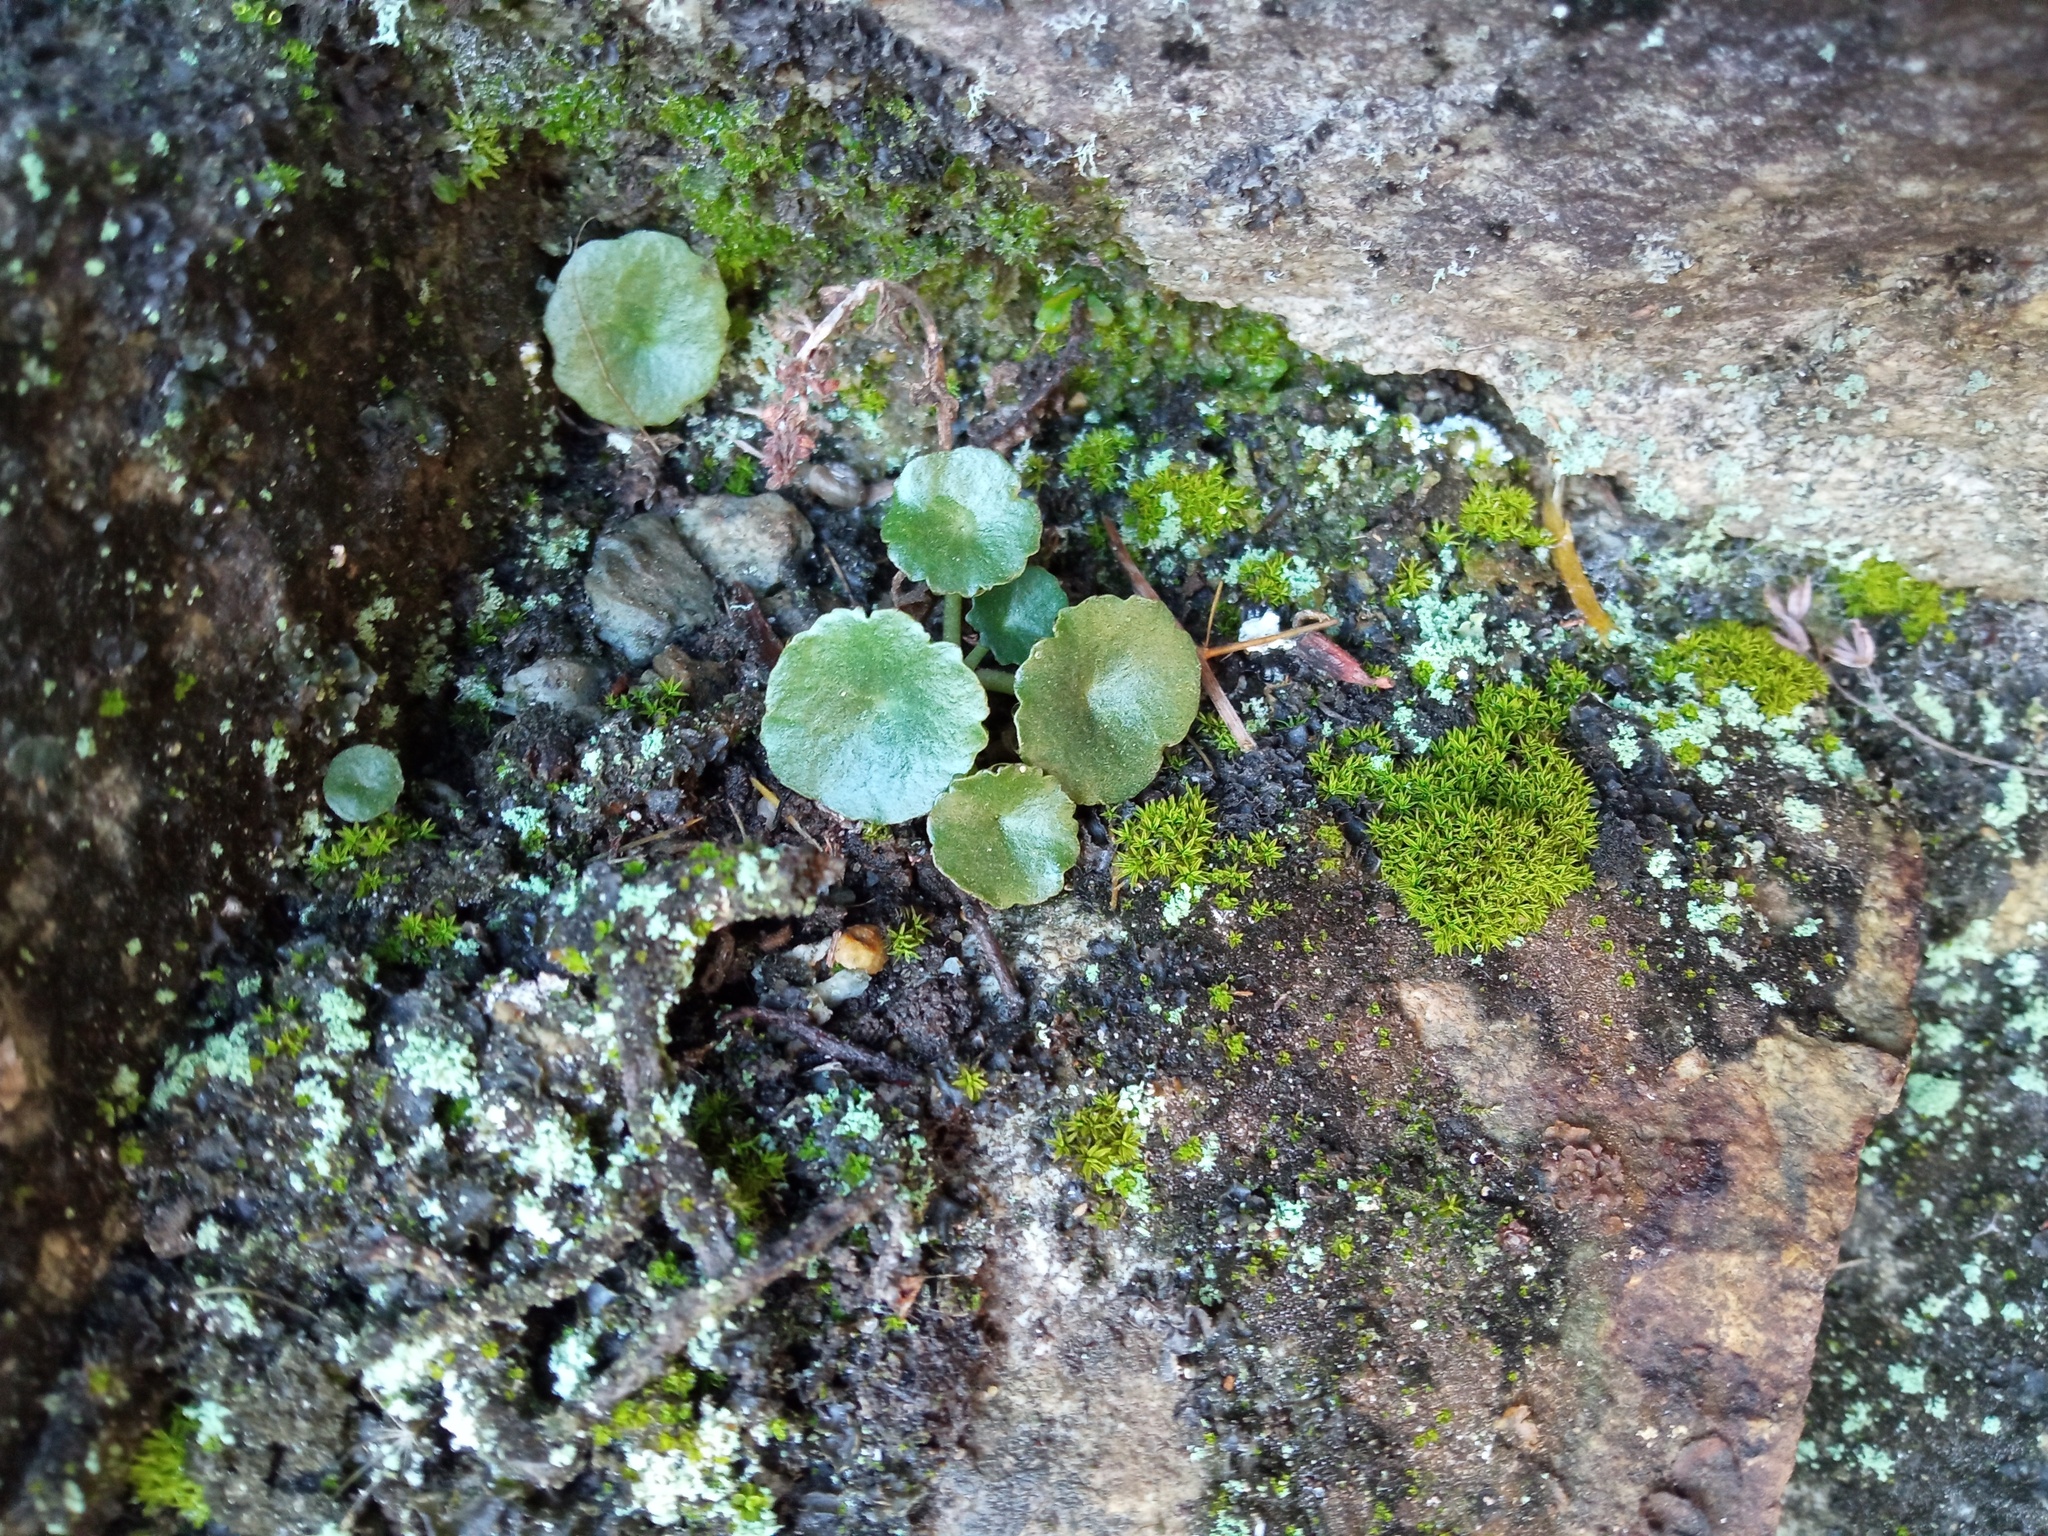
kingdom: Plantae
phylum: Tracheophyta
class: Magnoliopsida
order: Saxifragales
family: Crassulaceae
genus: Umbilicus
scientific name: Umbilicus rupestris
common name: Navelwort
